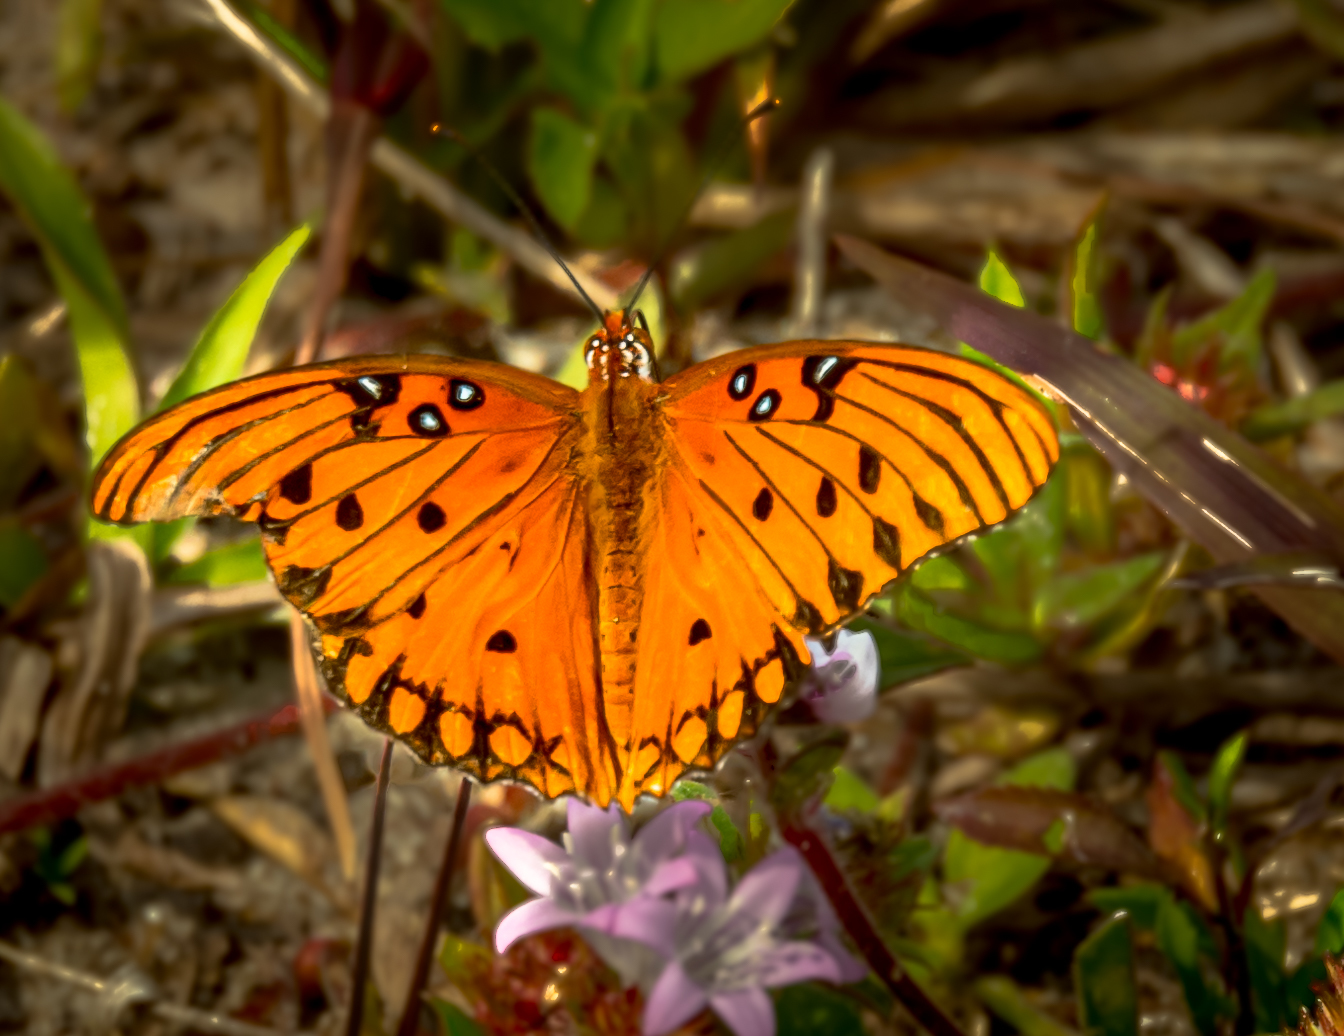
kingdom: Animalia
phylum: Arthropoda
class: Insecta
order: Lepidoptera
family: Nymphalidae
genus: Dione
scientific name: Dione vanillae
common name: Gulf fritillary
